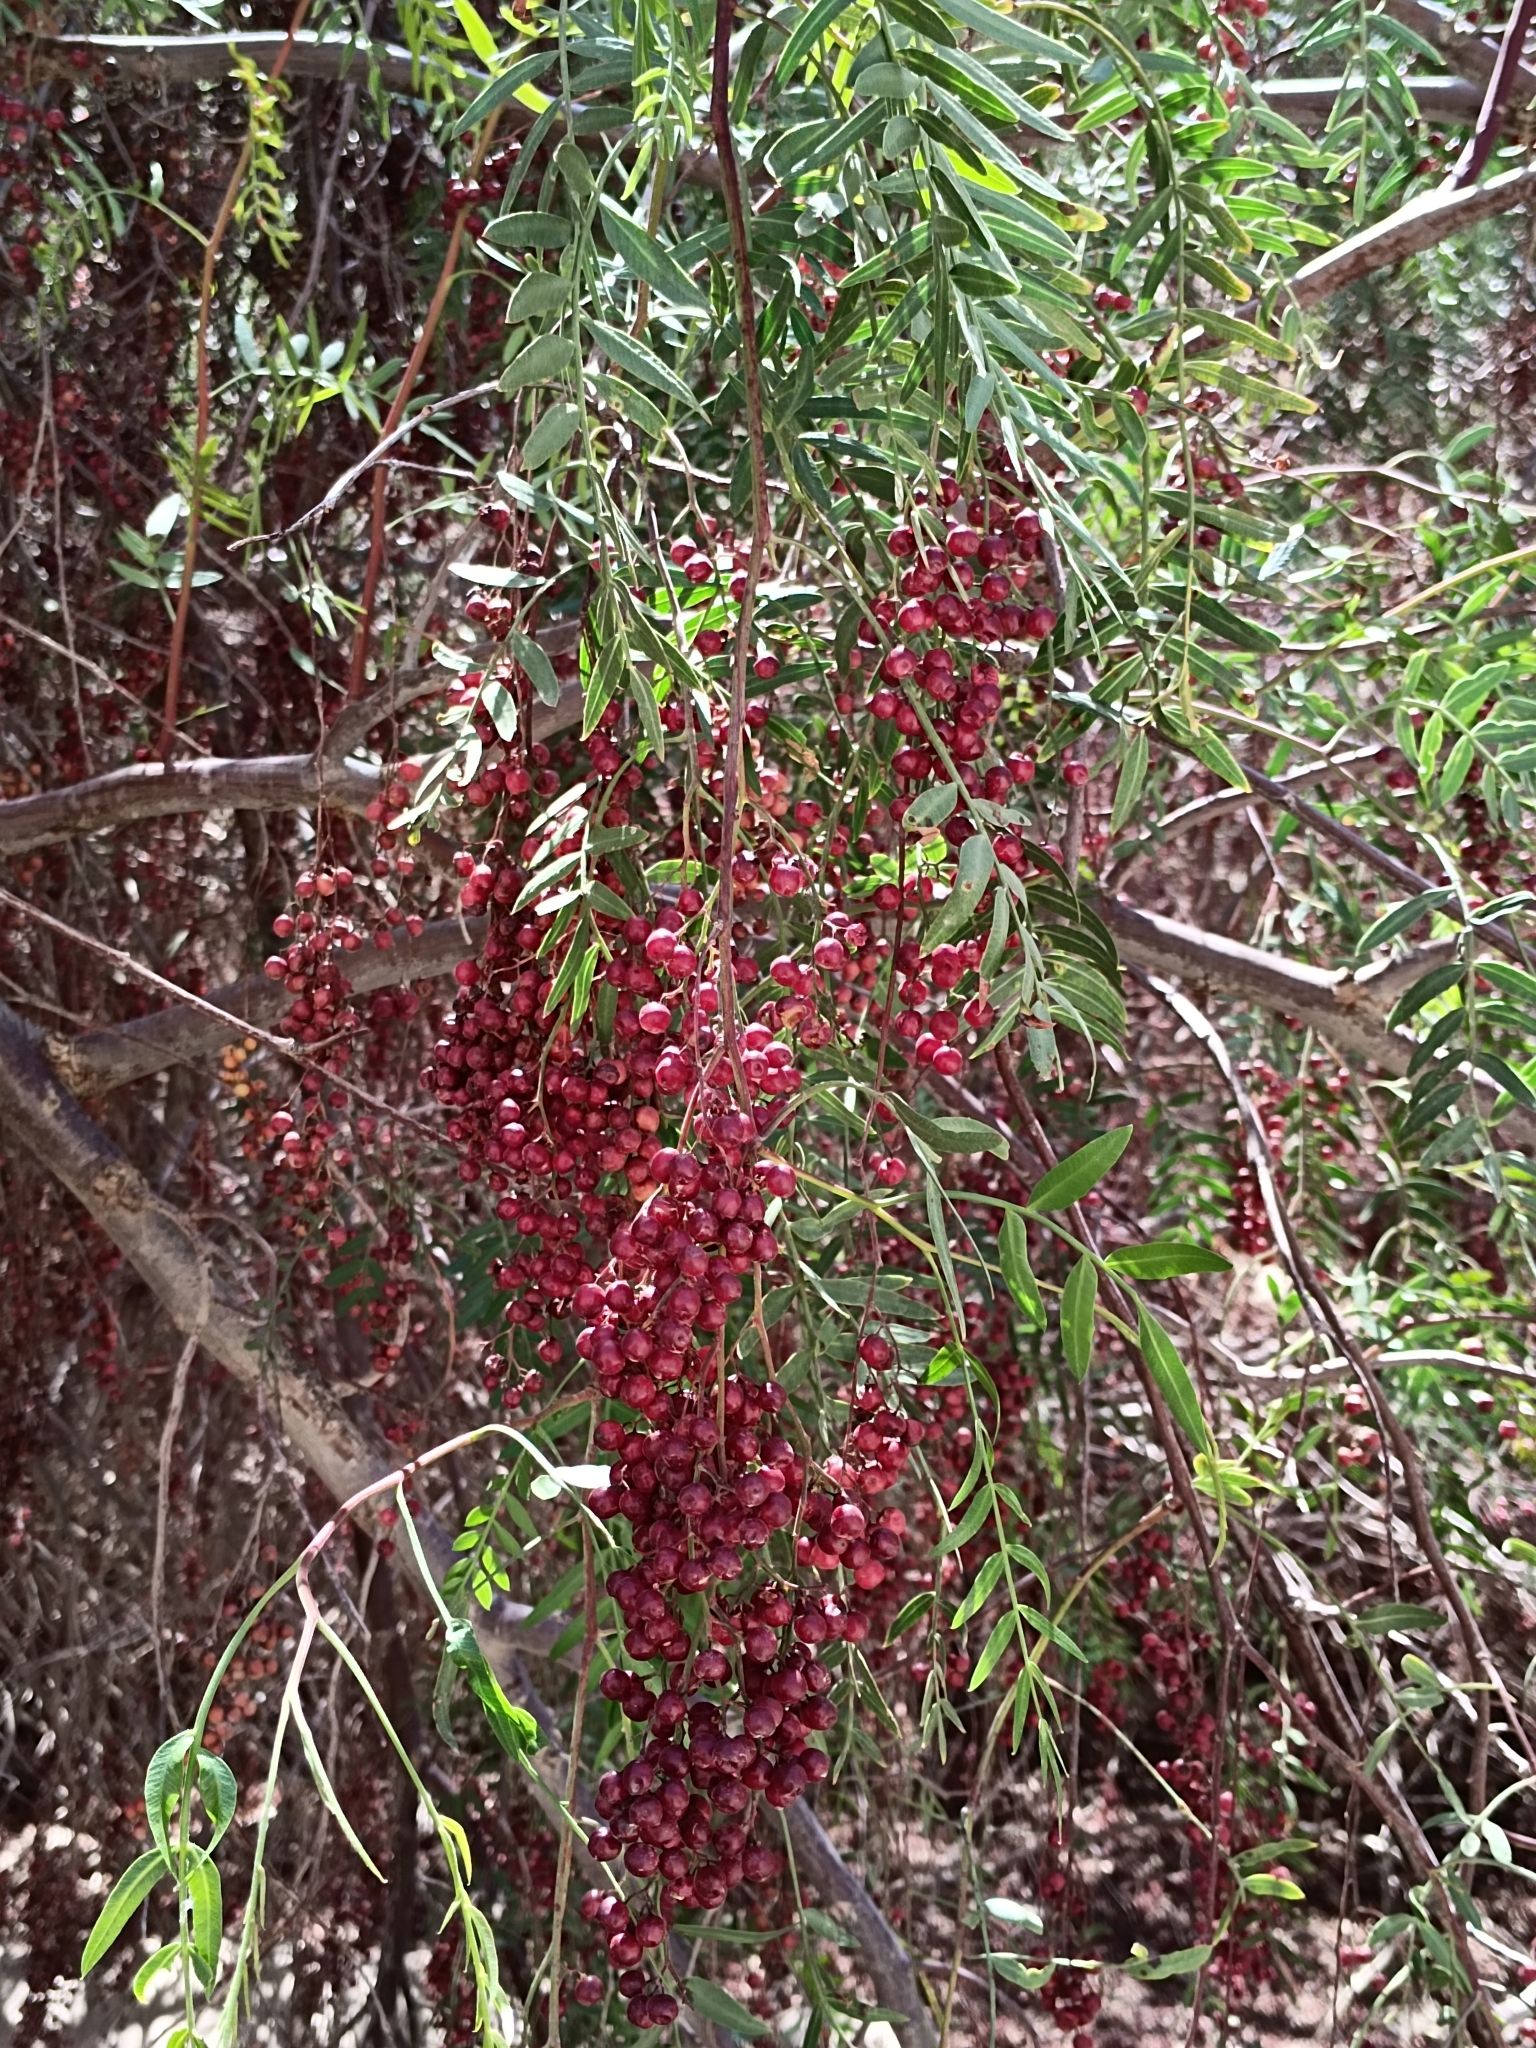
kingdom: Plantae
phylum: Tracheophyta
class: Magnoliopsida
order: Sapindales
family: Anacardiaceae
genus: Schinus
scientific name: Schinus molle
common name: Peruvian peppertree
